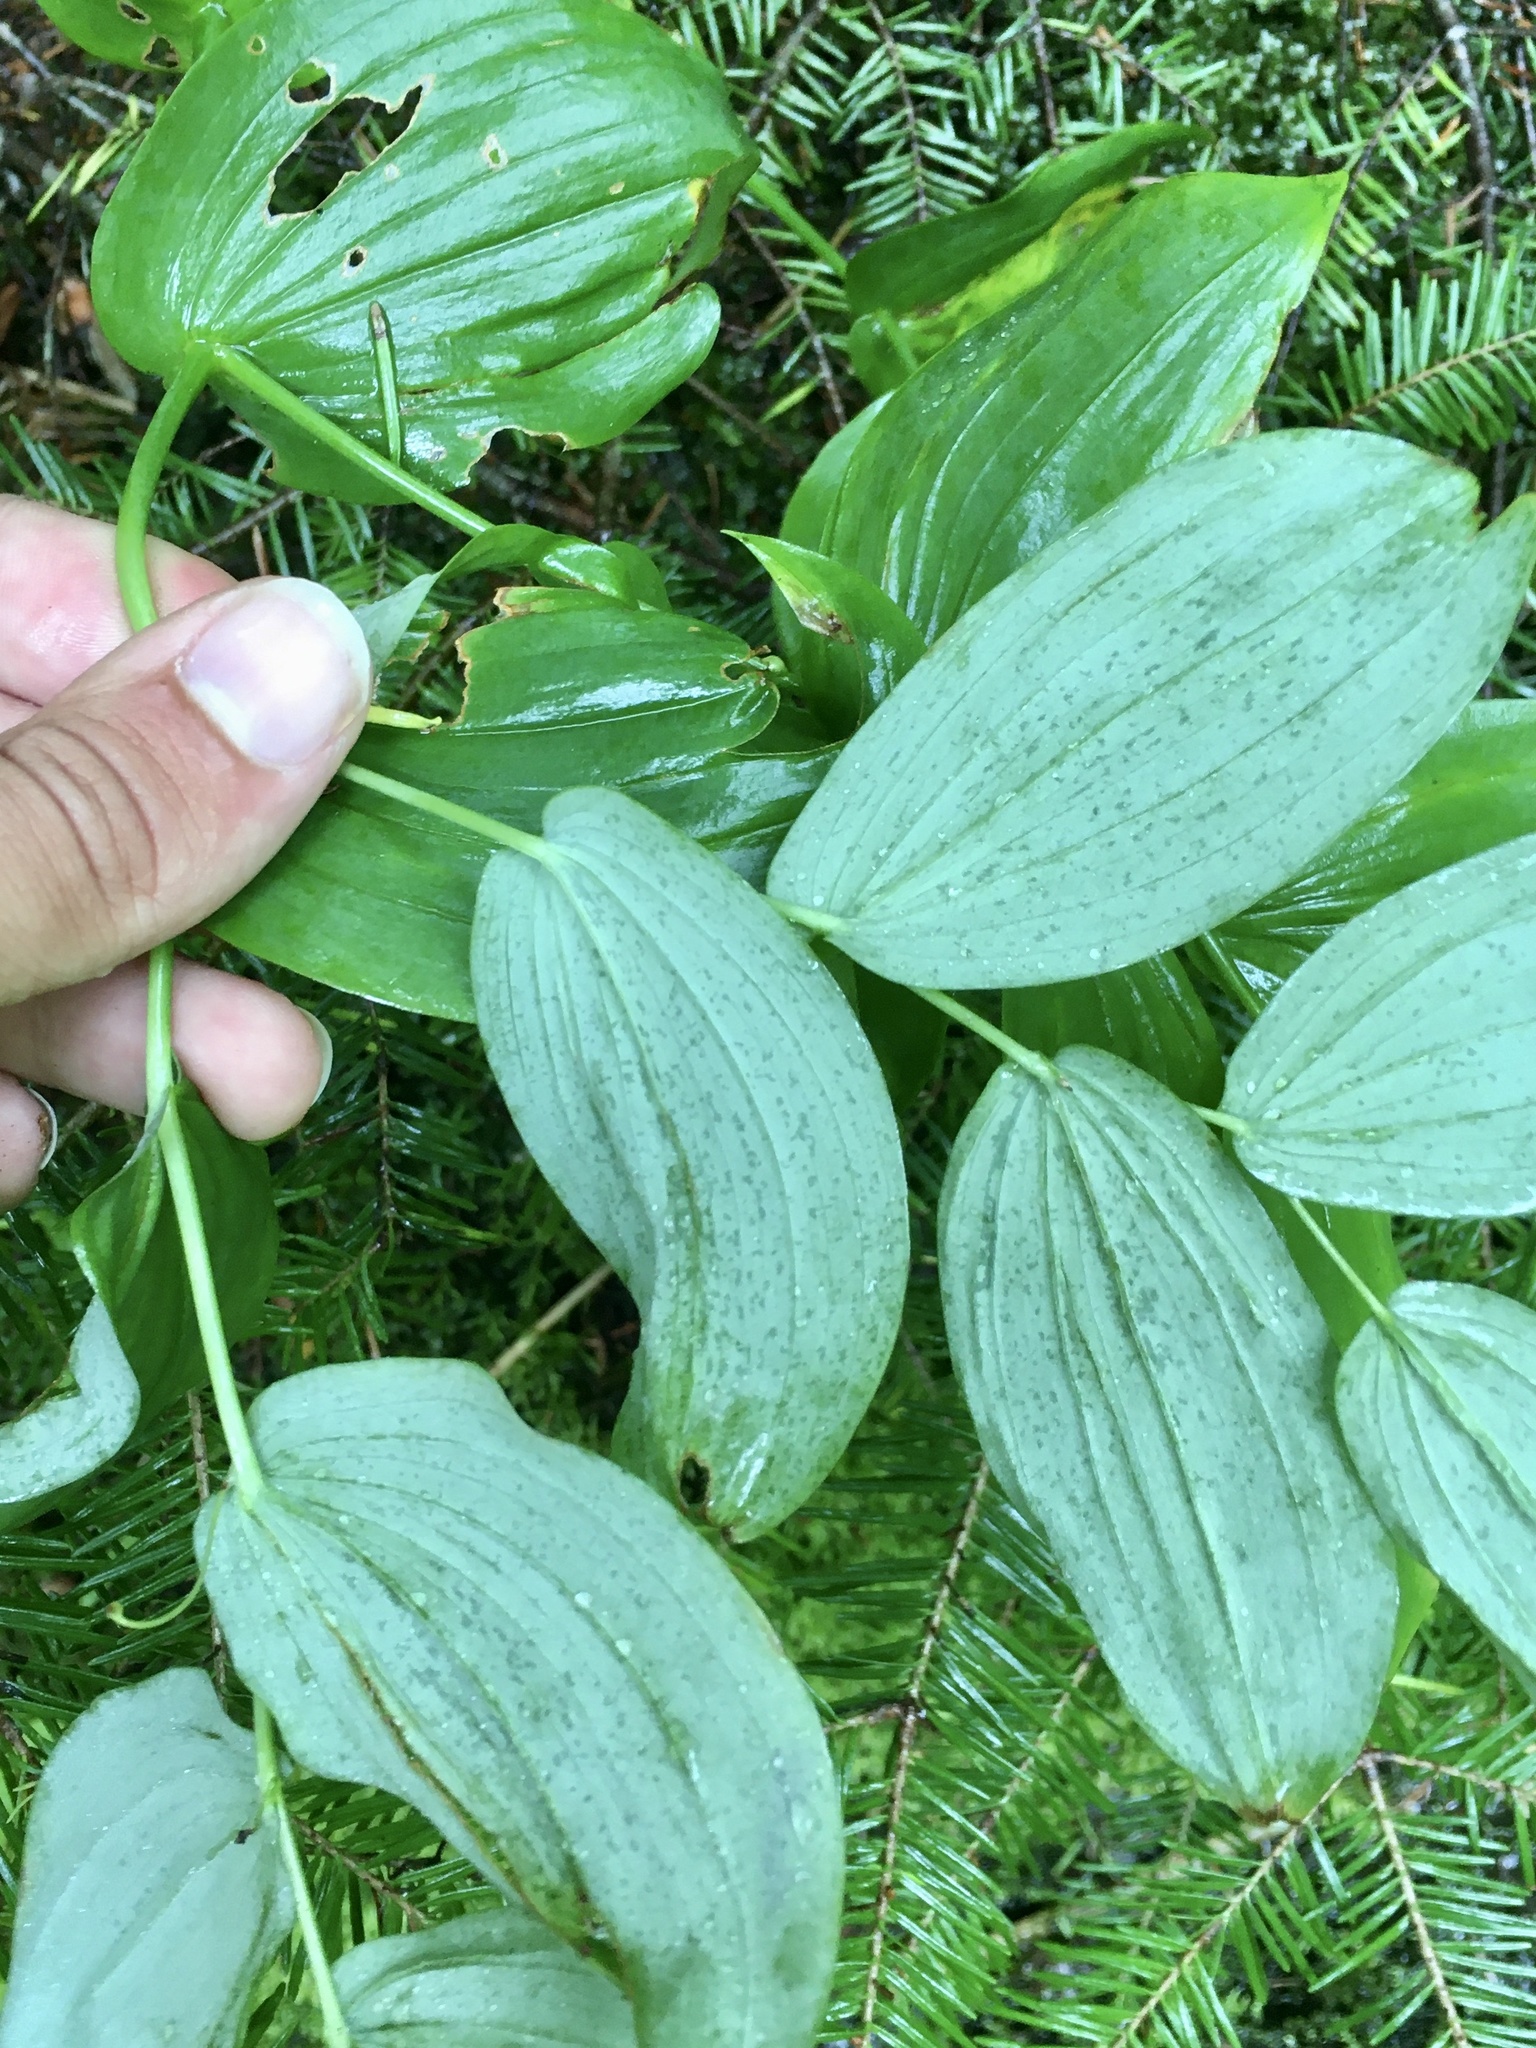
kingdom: Plantae
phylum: Tracheophyta
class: Liliopsida
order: Liliales
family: Liliaceae
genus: Streptopus
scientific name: Streptopus amplexifolius
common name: Clasp twisted stalk
